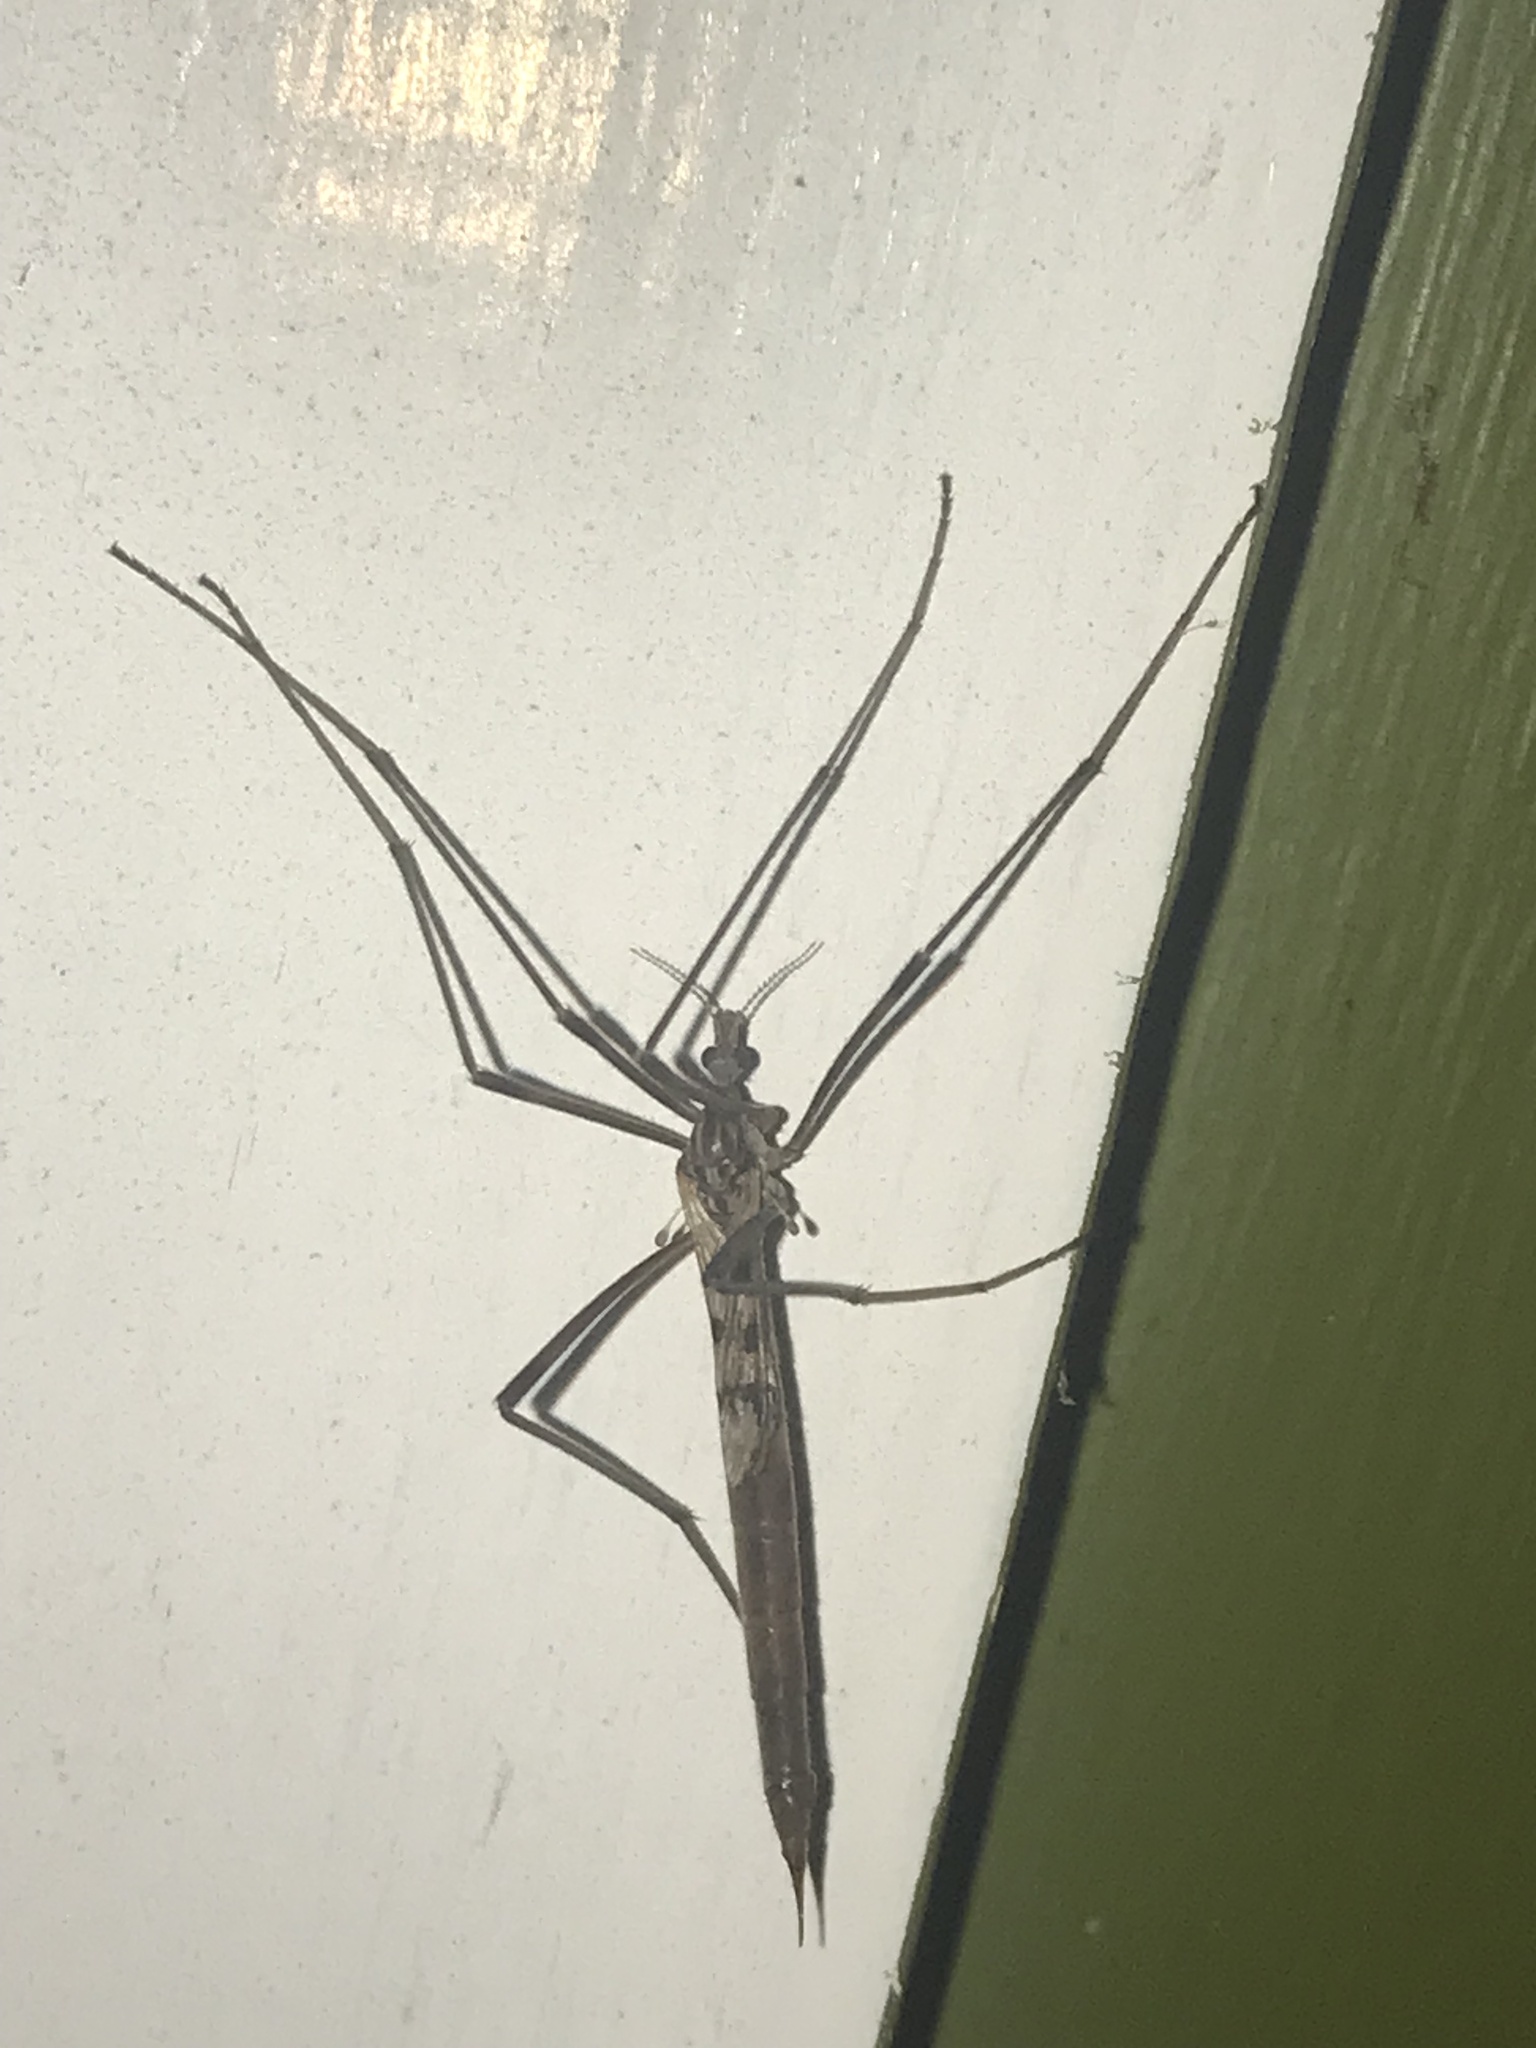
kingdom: Animalia
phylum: Arthropoda
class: Insecta
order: Diptera
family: Limoniidae
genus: Gynoplistia
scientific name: Gynoplistia notata
